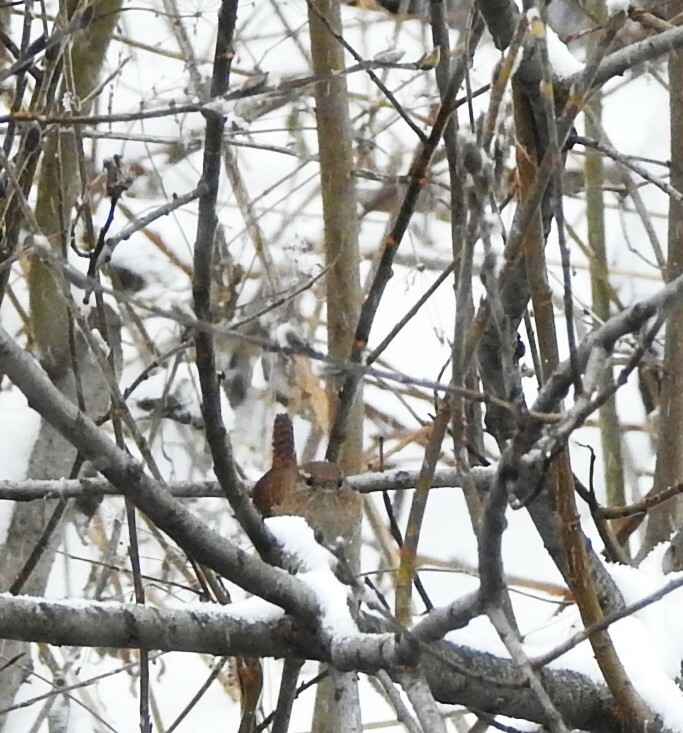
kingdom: Animalia
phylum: Chordata
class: Aves
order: Passeriformes
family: Troglodytidae
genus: Troglodytes
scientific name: Troglodytes troglodytes
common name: Eurasian wren
